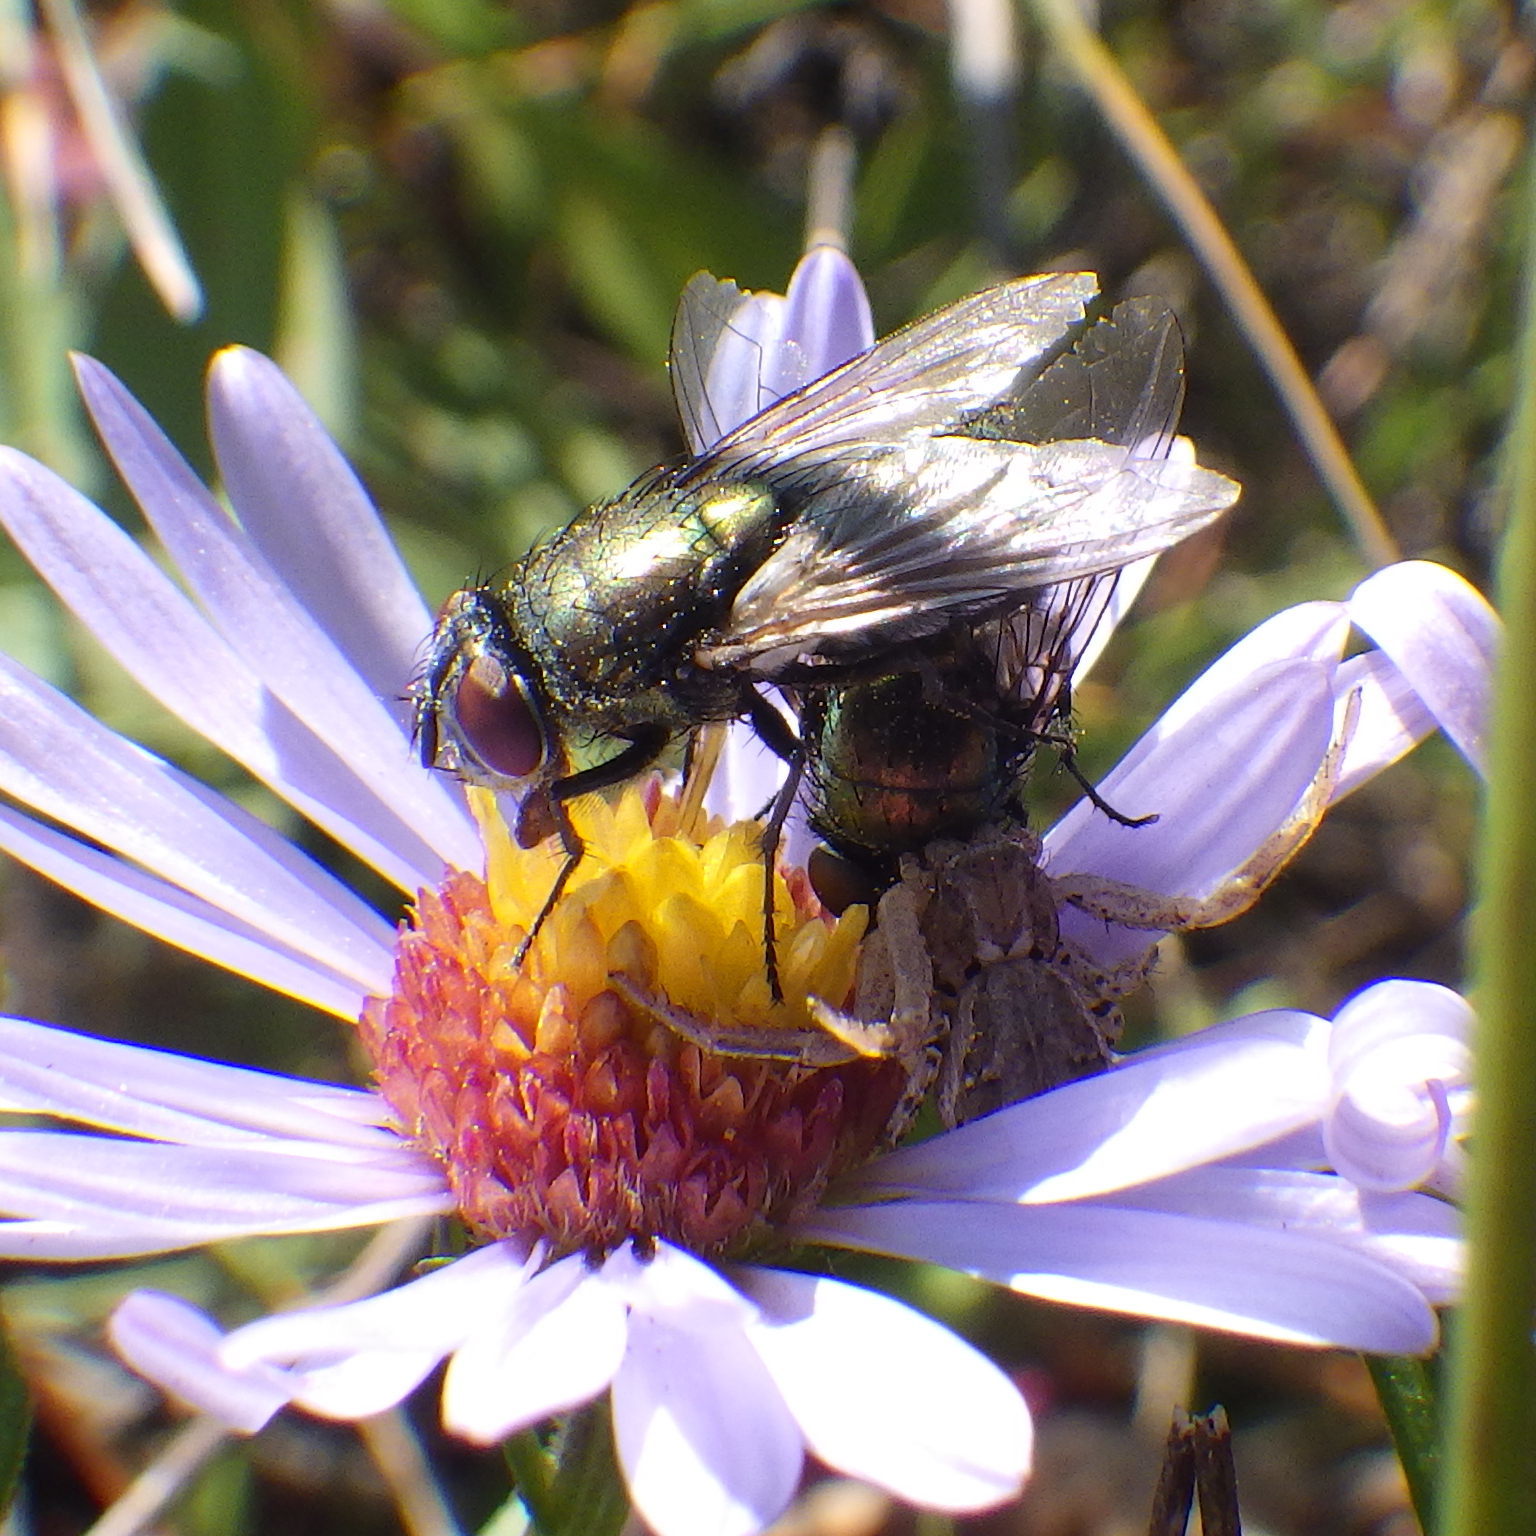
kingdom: Animalia
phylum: Arthropoda
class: Insecta
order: Diptera
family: Calliphoridae
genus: Lucilia
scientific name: Lucilia sericata
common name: Blow fly
